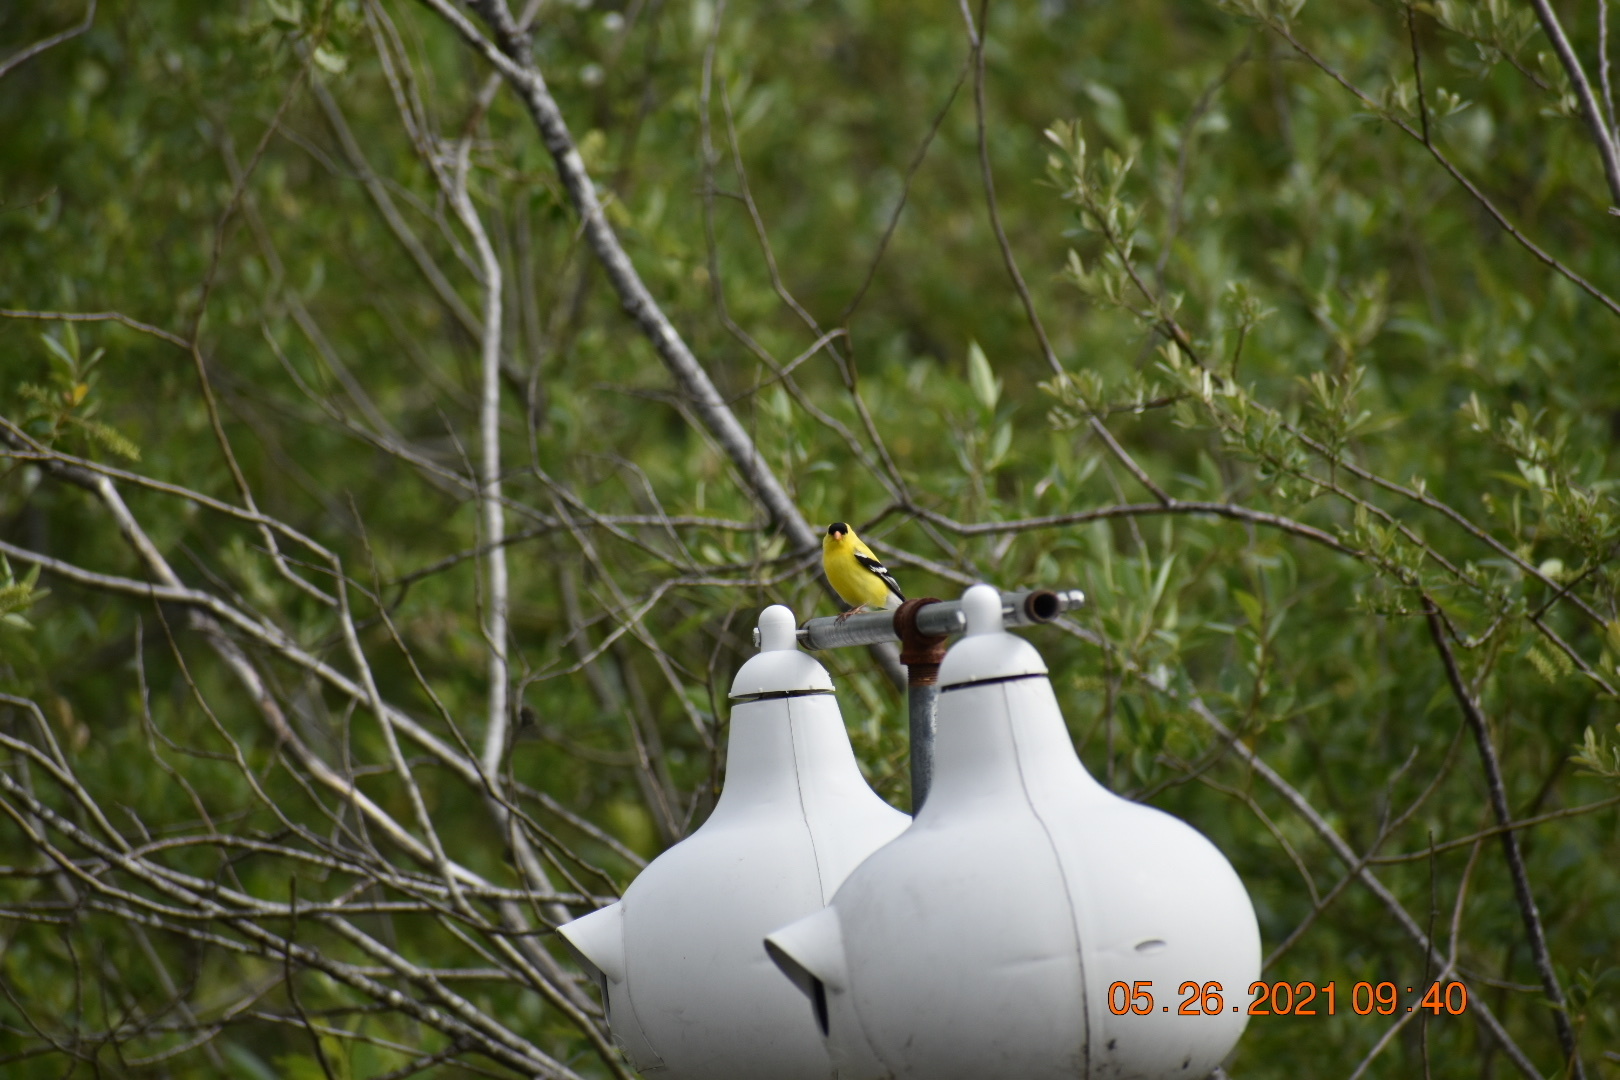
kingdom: Animalia
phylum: Chordata
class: Aves
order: Passeriformes
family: Fringillidae
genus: Spinus
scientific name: Spinus tristis
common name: American goldfinch
